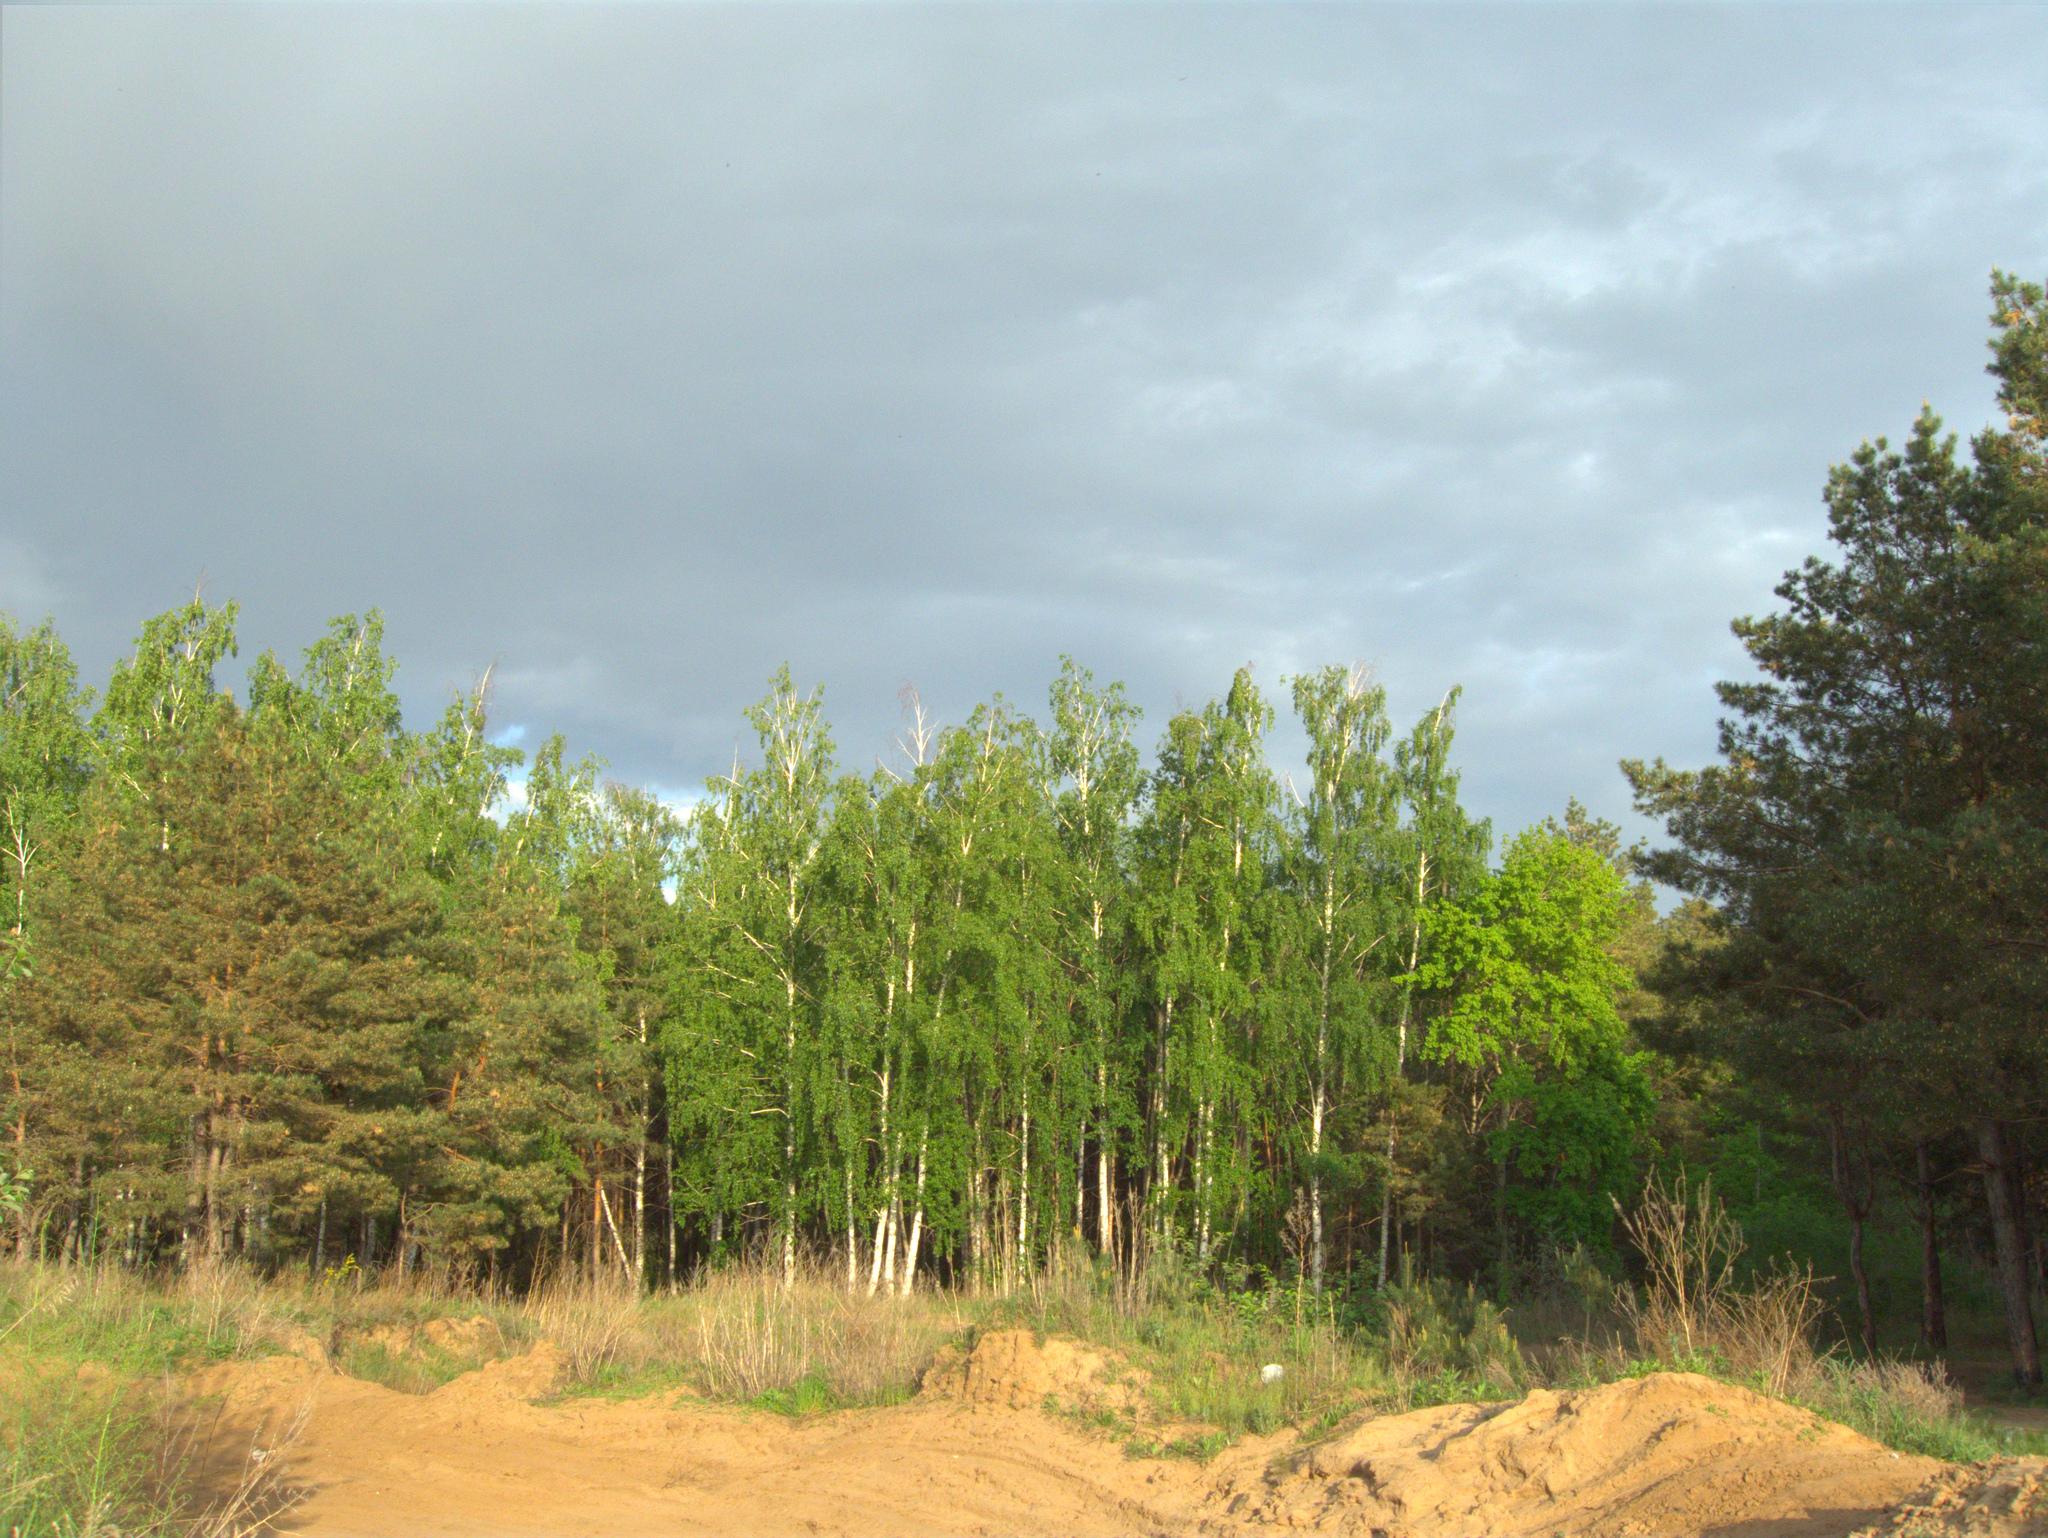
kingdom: Plantae
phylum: Tracheophyta
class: Pinopsida
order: Pinales
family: Pinaceae
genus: Pinus
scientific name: Pinus sylvestris
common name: Scots pine
